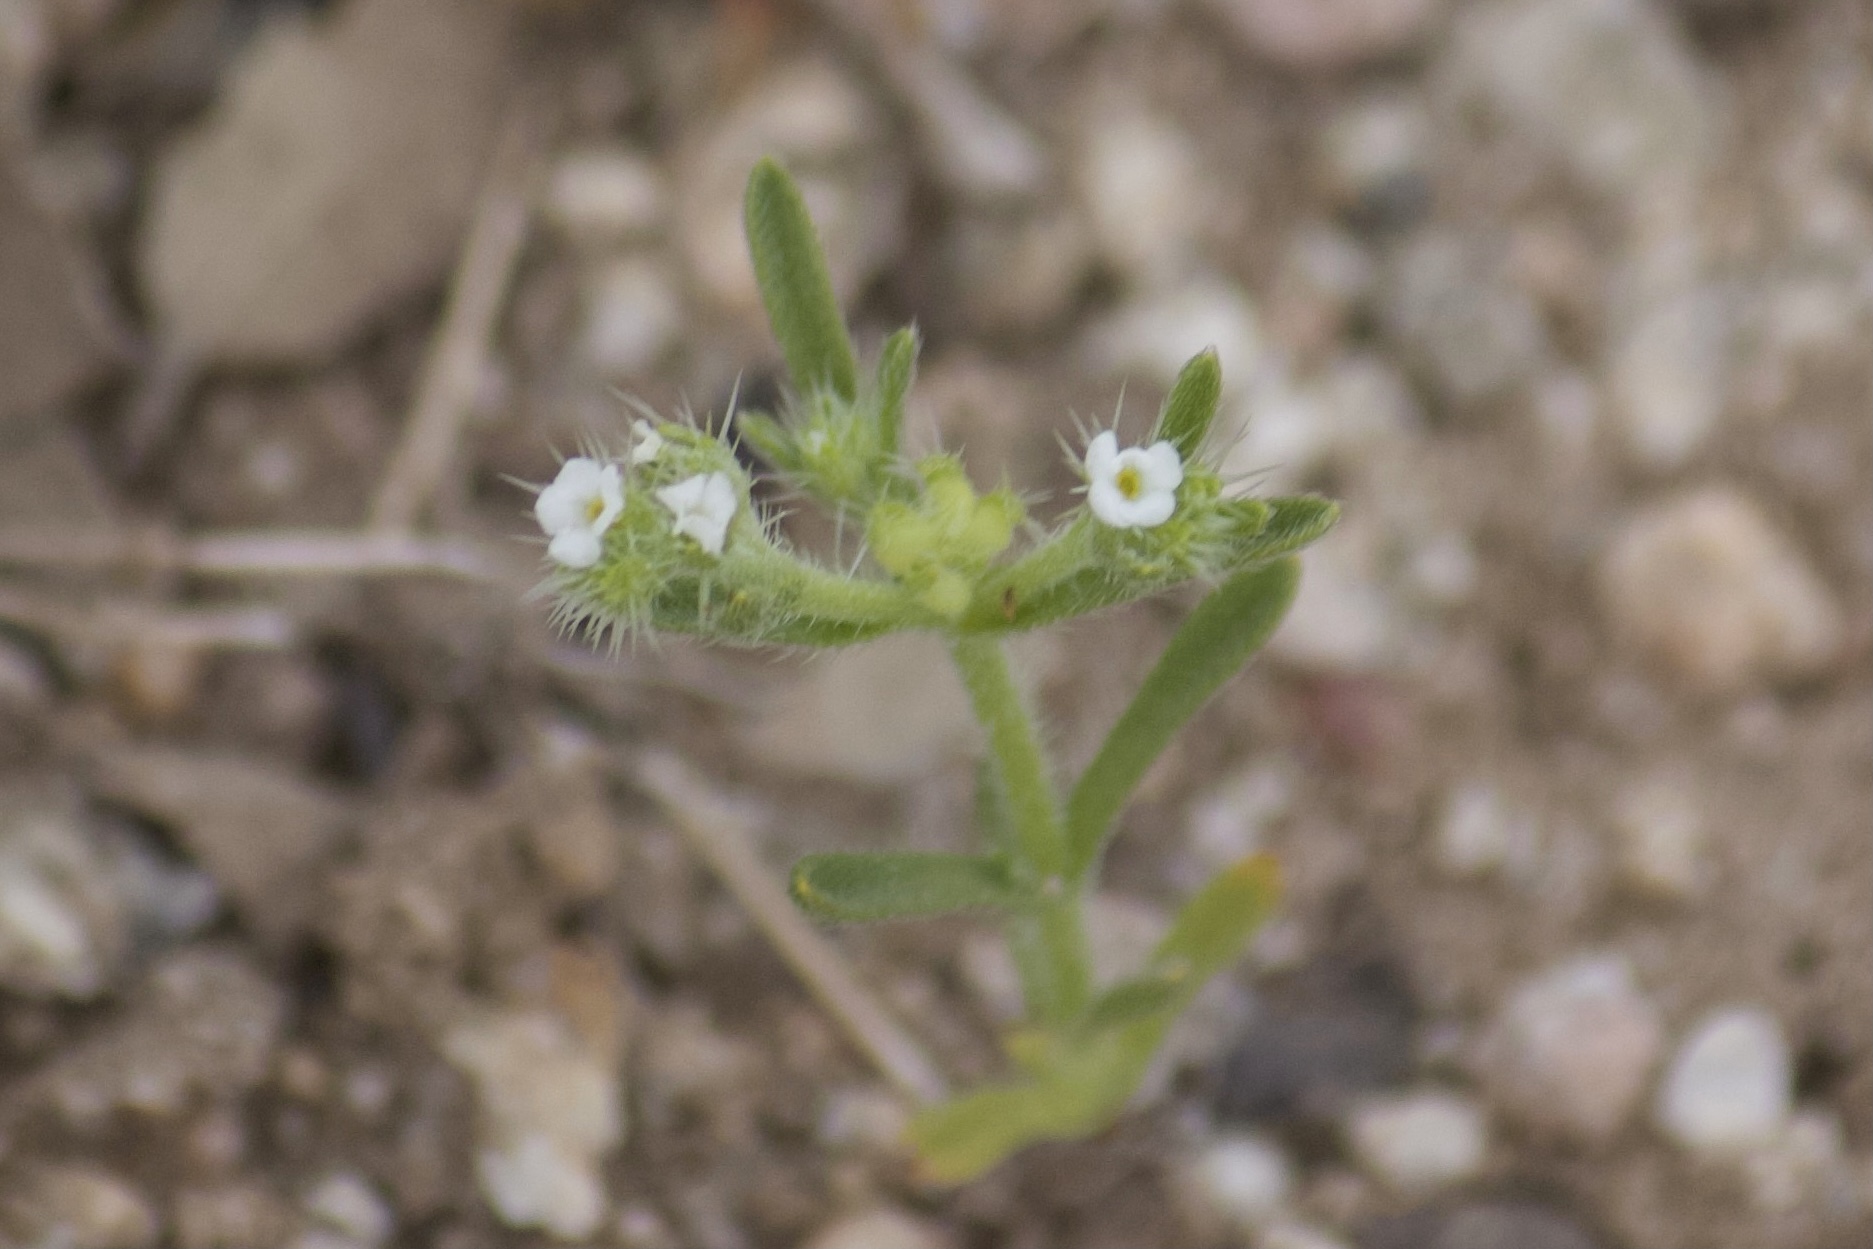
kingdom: Plantae
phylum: Tracheophyta
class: Magnoliopsida
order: Boraginales
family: Boraginaceae
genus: Pectocarya
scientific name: Pectocarya setosa
